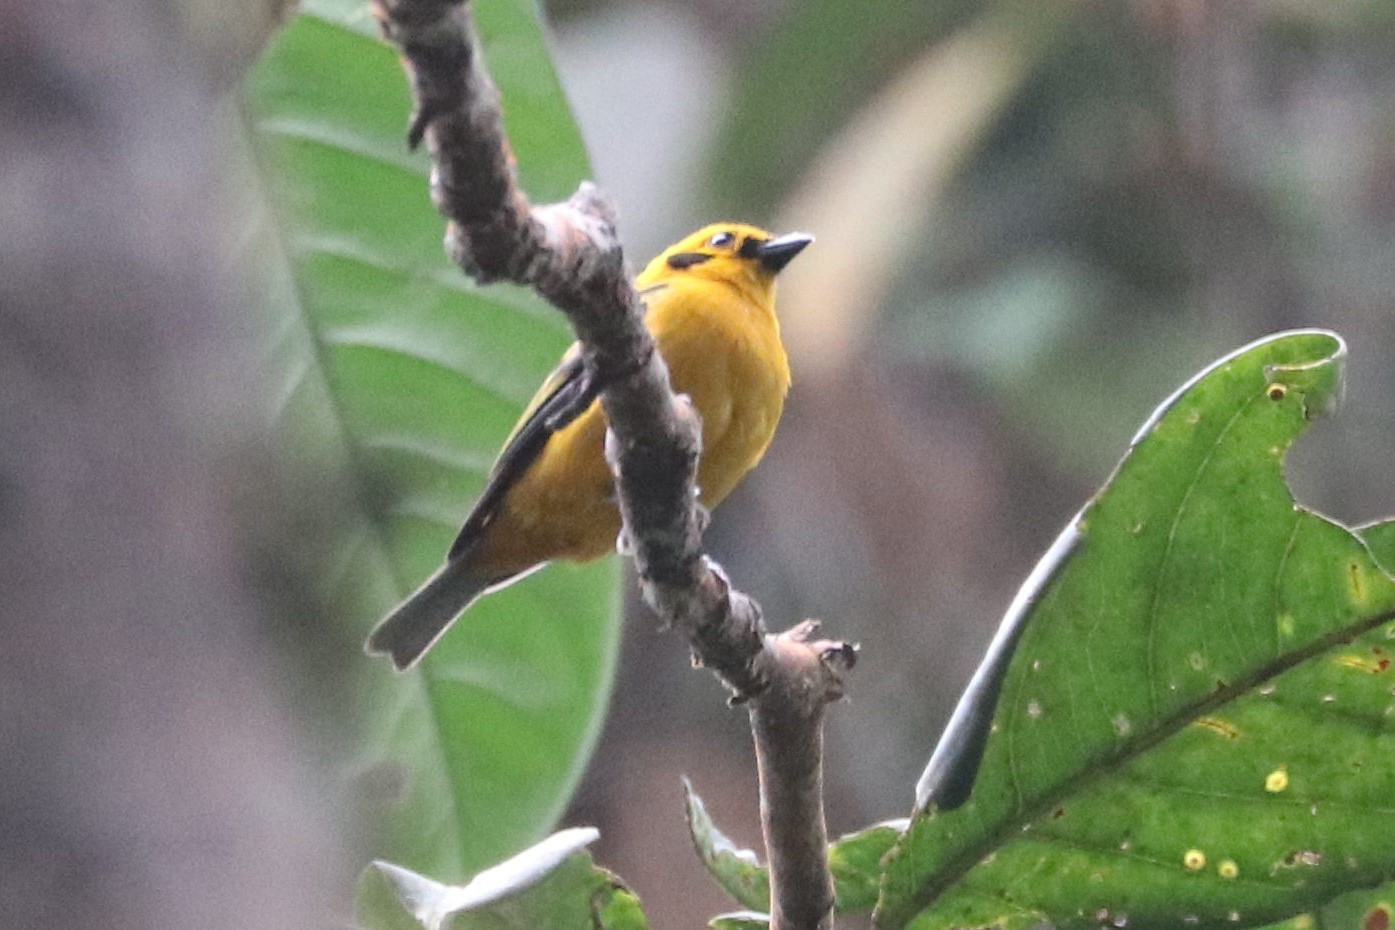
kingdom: Animalia
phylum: Chordata
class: Aves
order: Passeriformes
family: Thraupidae
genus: Tangara
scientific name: Tangara arthus
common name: Golden tanager
